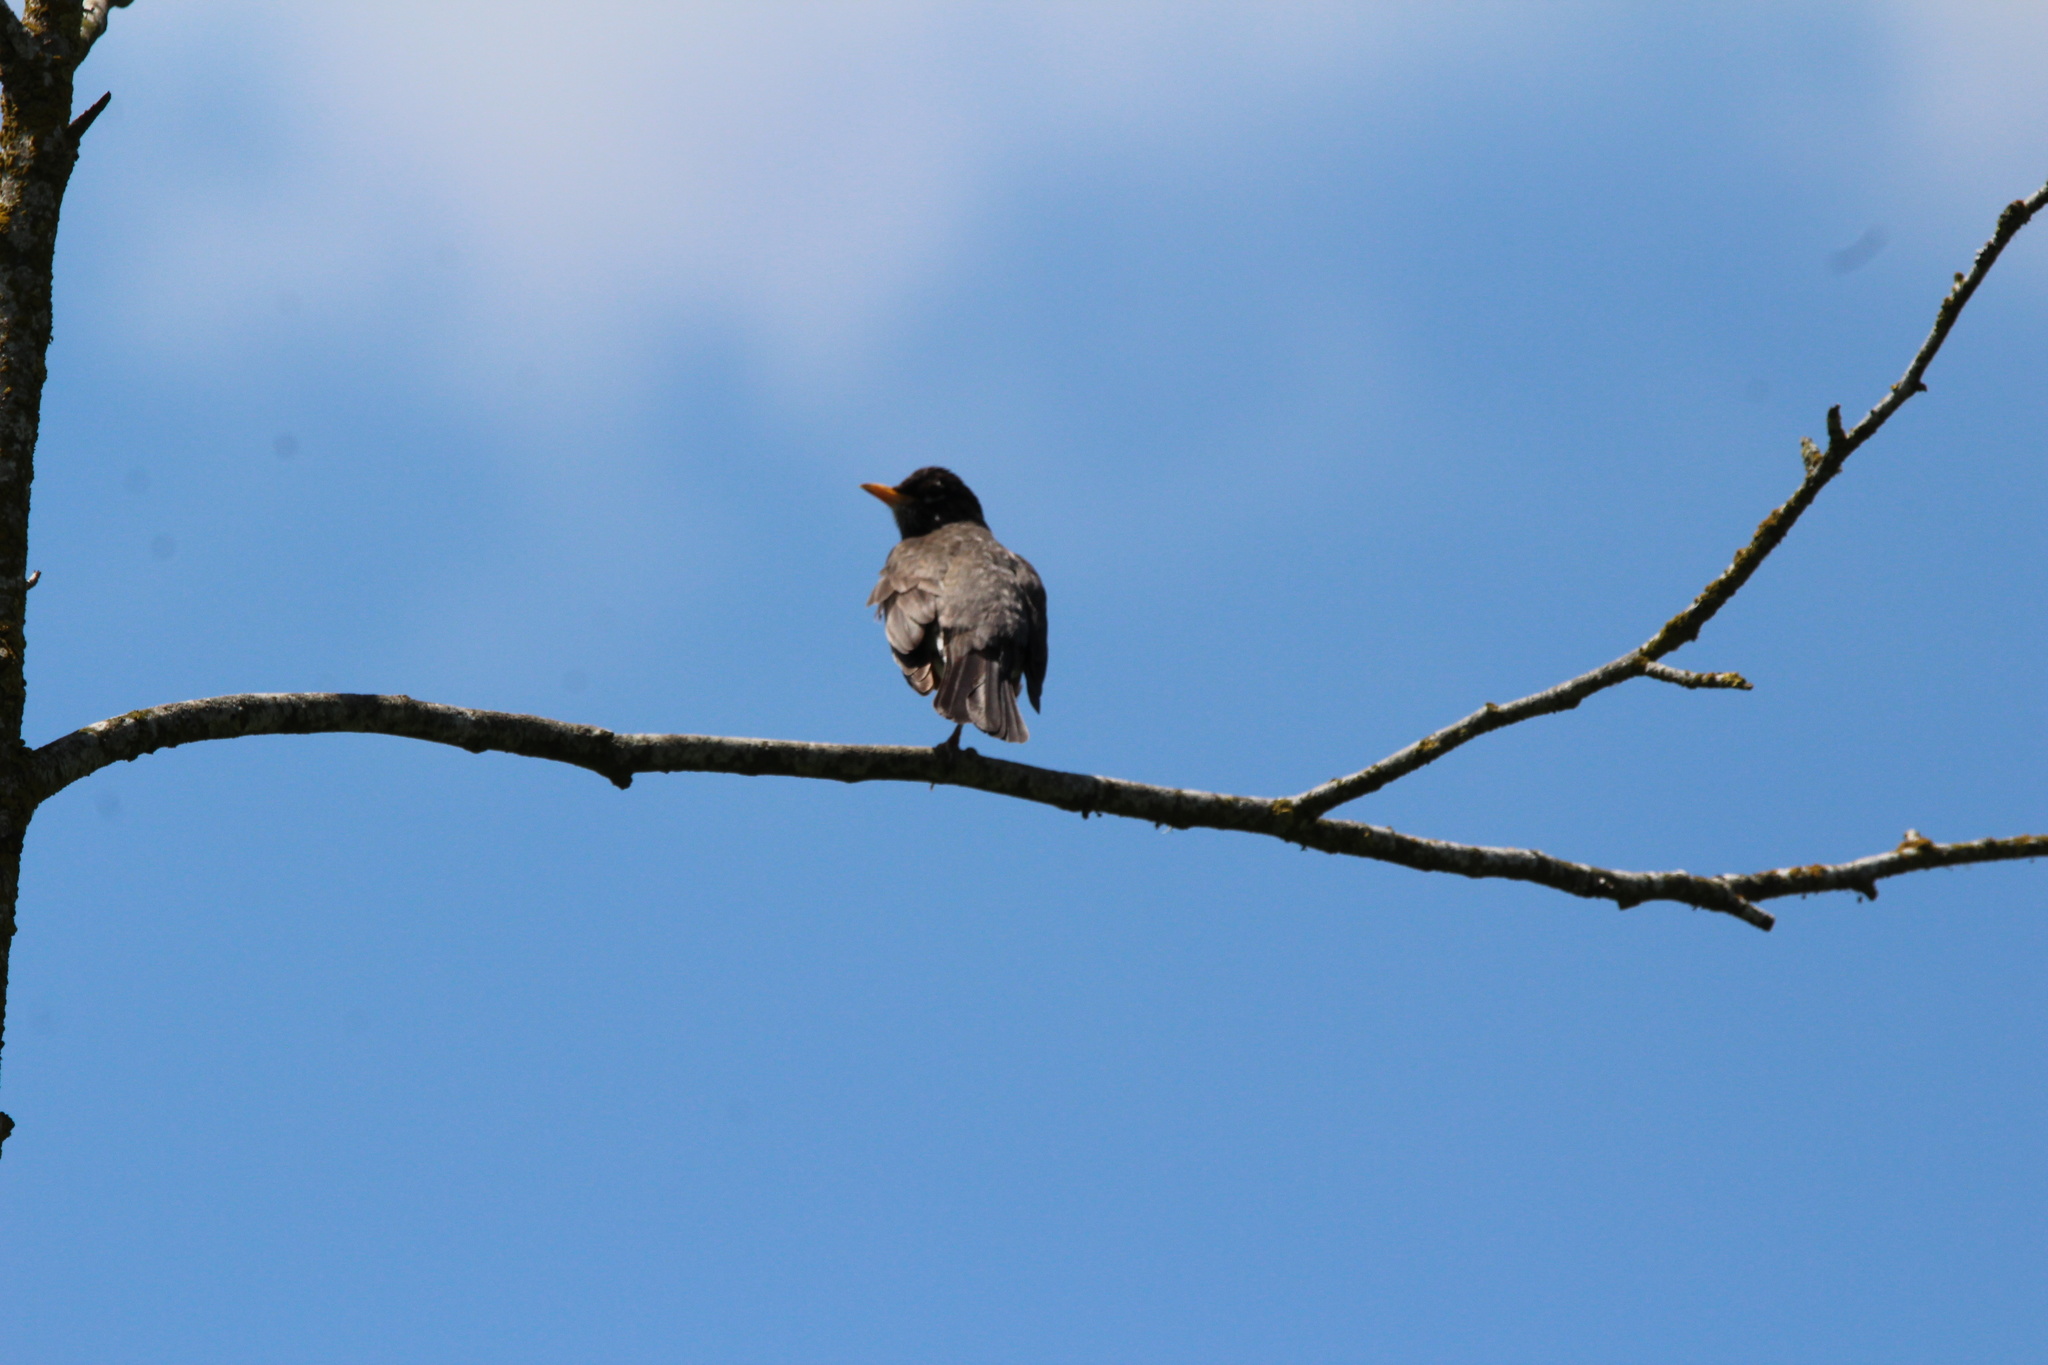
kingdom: Animalia
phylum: Chordata
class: Aves
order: Passeriformes
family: Turdidae
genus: Turdus
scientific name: Turdus migratorius
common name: American robin
